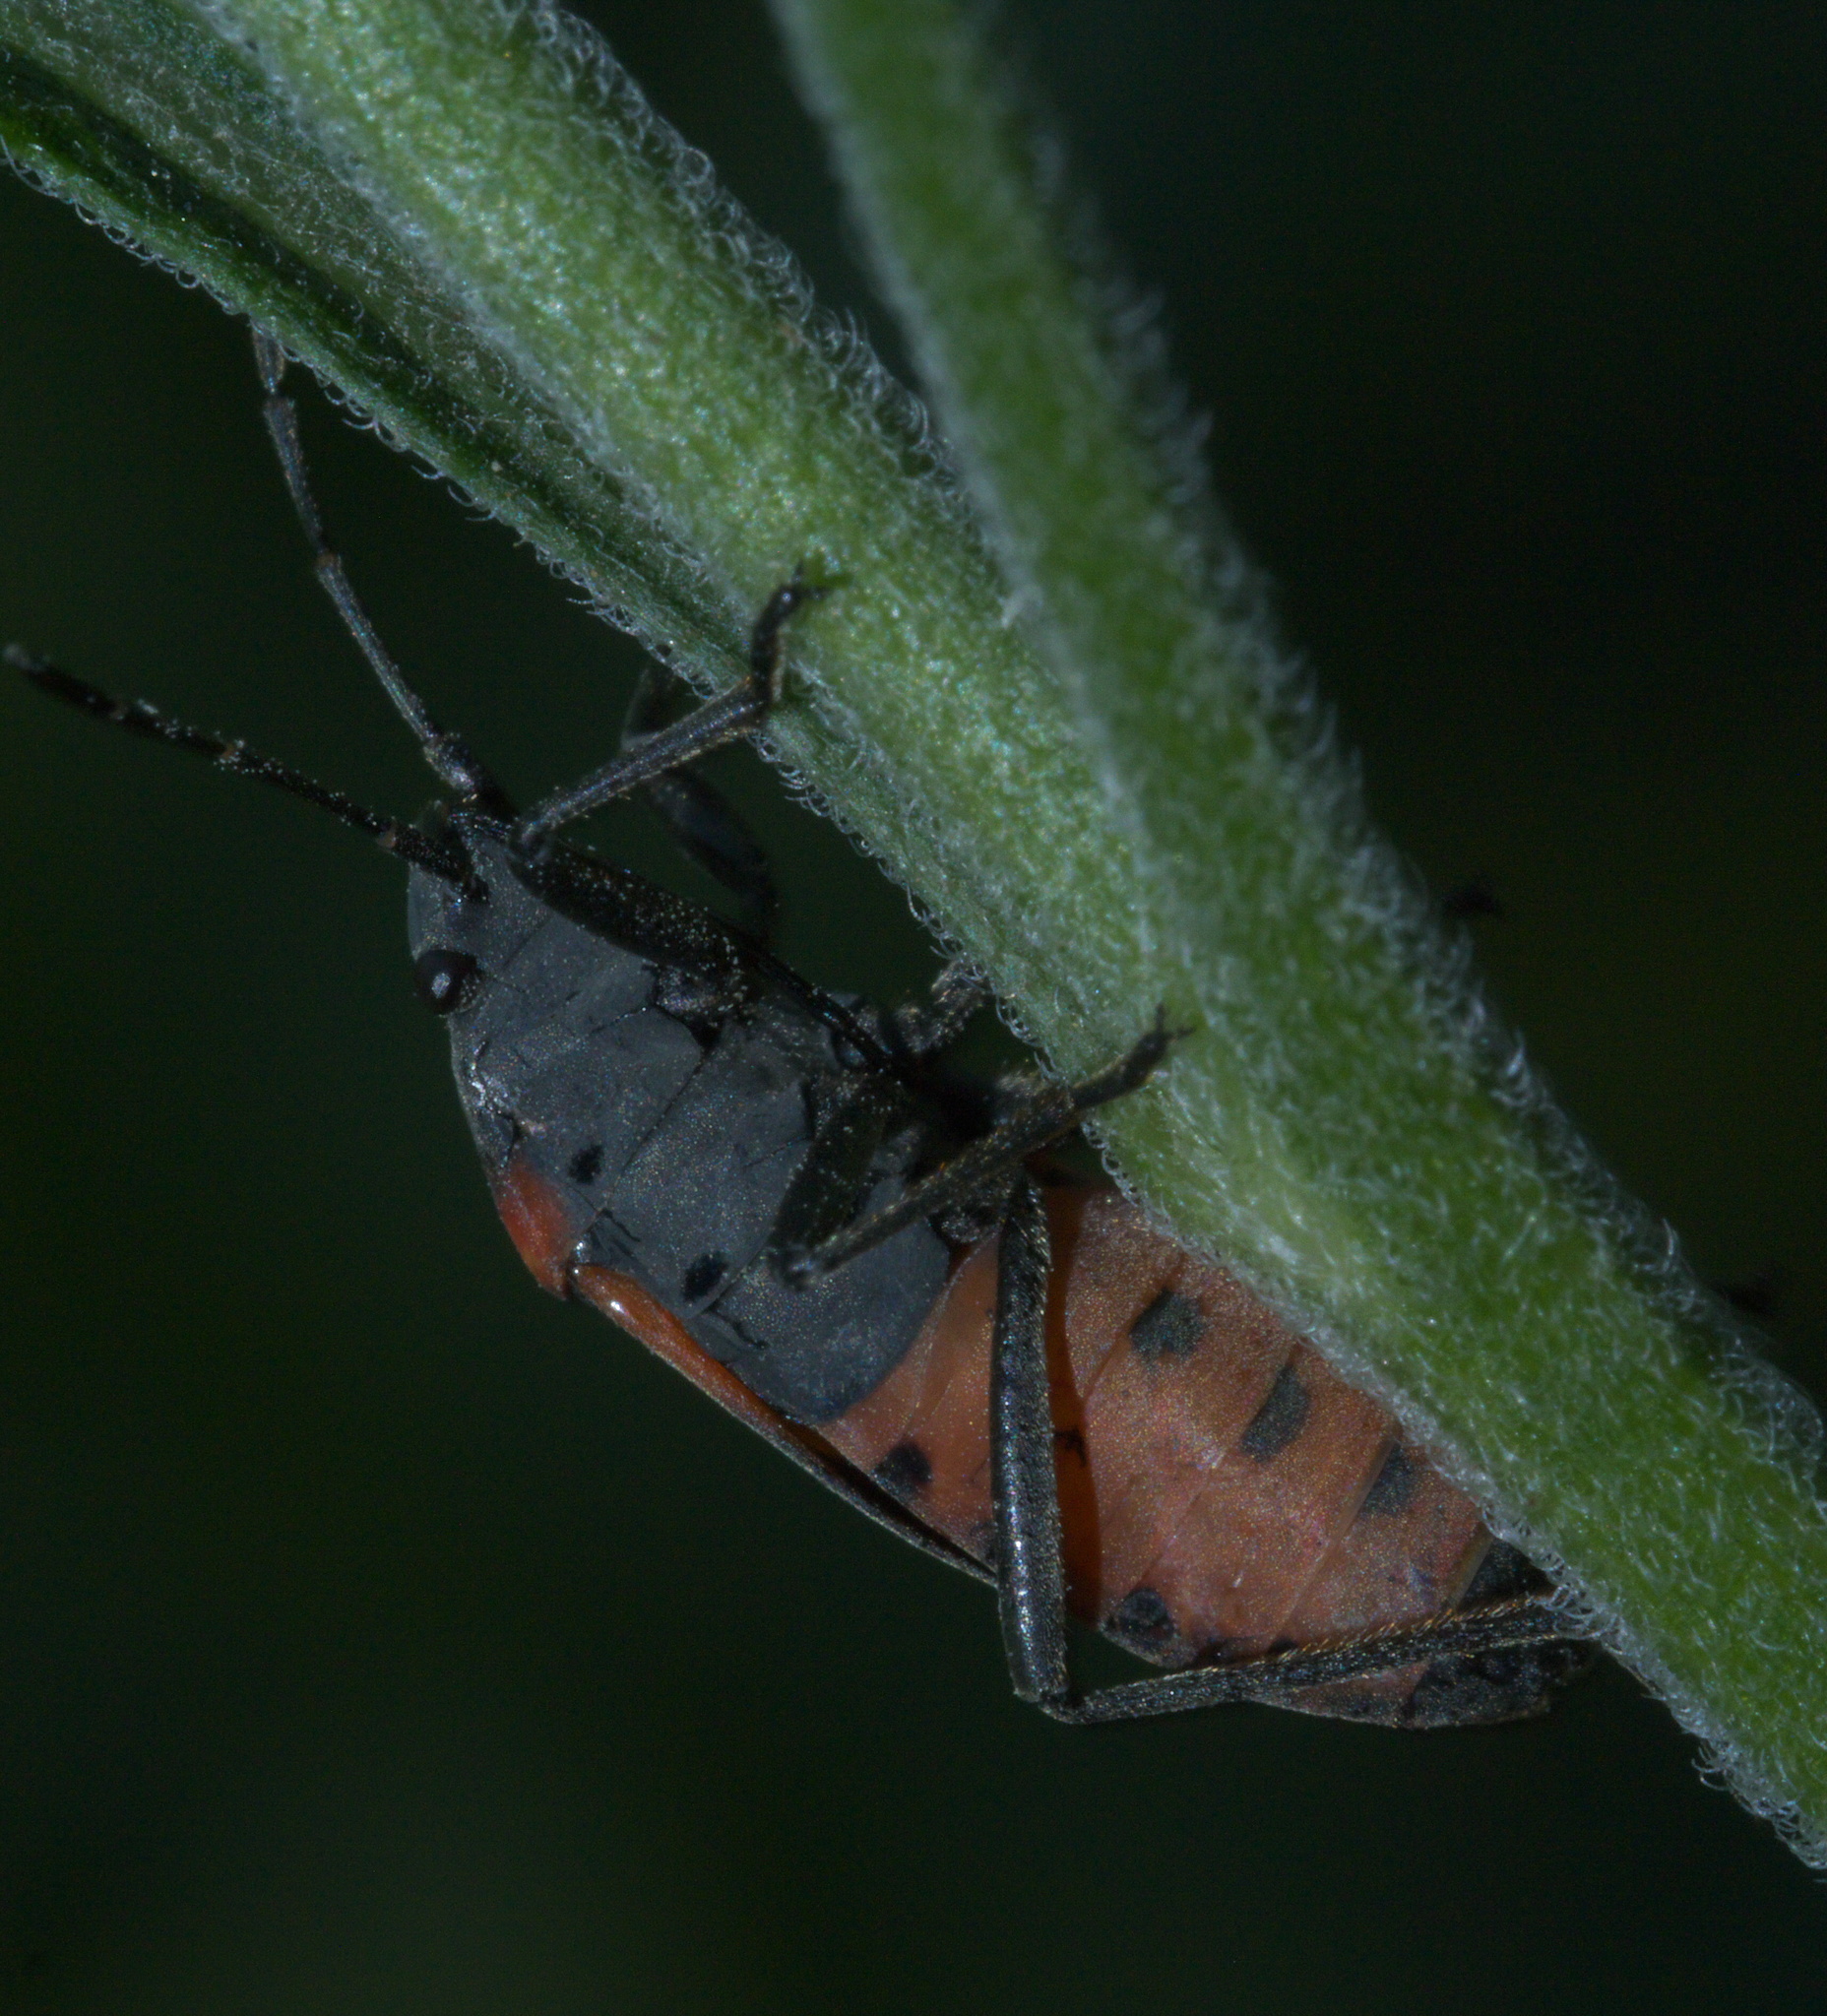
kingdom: Animalia
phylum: Arthropoda
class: Insecta
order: Hemiptera
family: Lygaeidae
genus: Lygaeus
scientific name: Lygaeus kalmii
